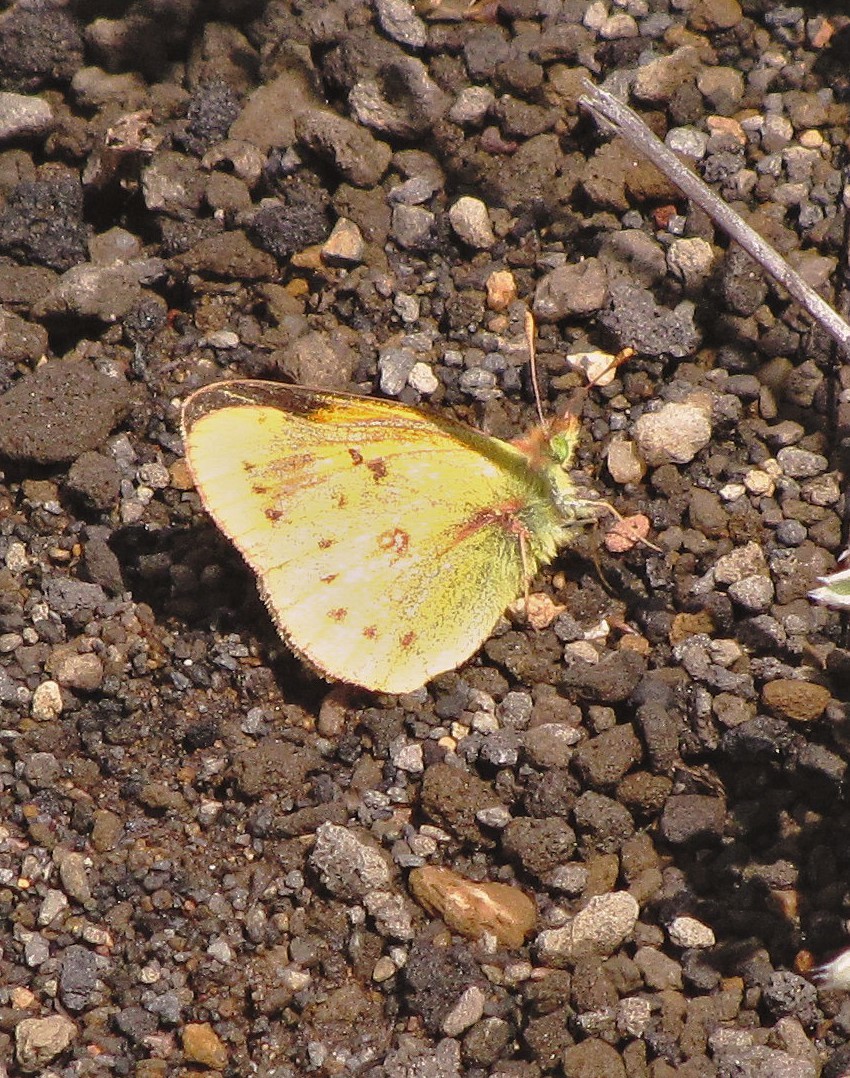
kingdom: Animalia
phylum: Arthropoda
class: Insecta
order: Lepidoptera
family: Pieridae
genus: Colias
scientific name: Colias vauthierii
